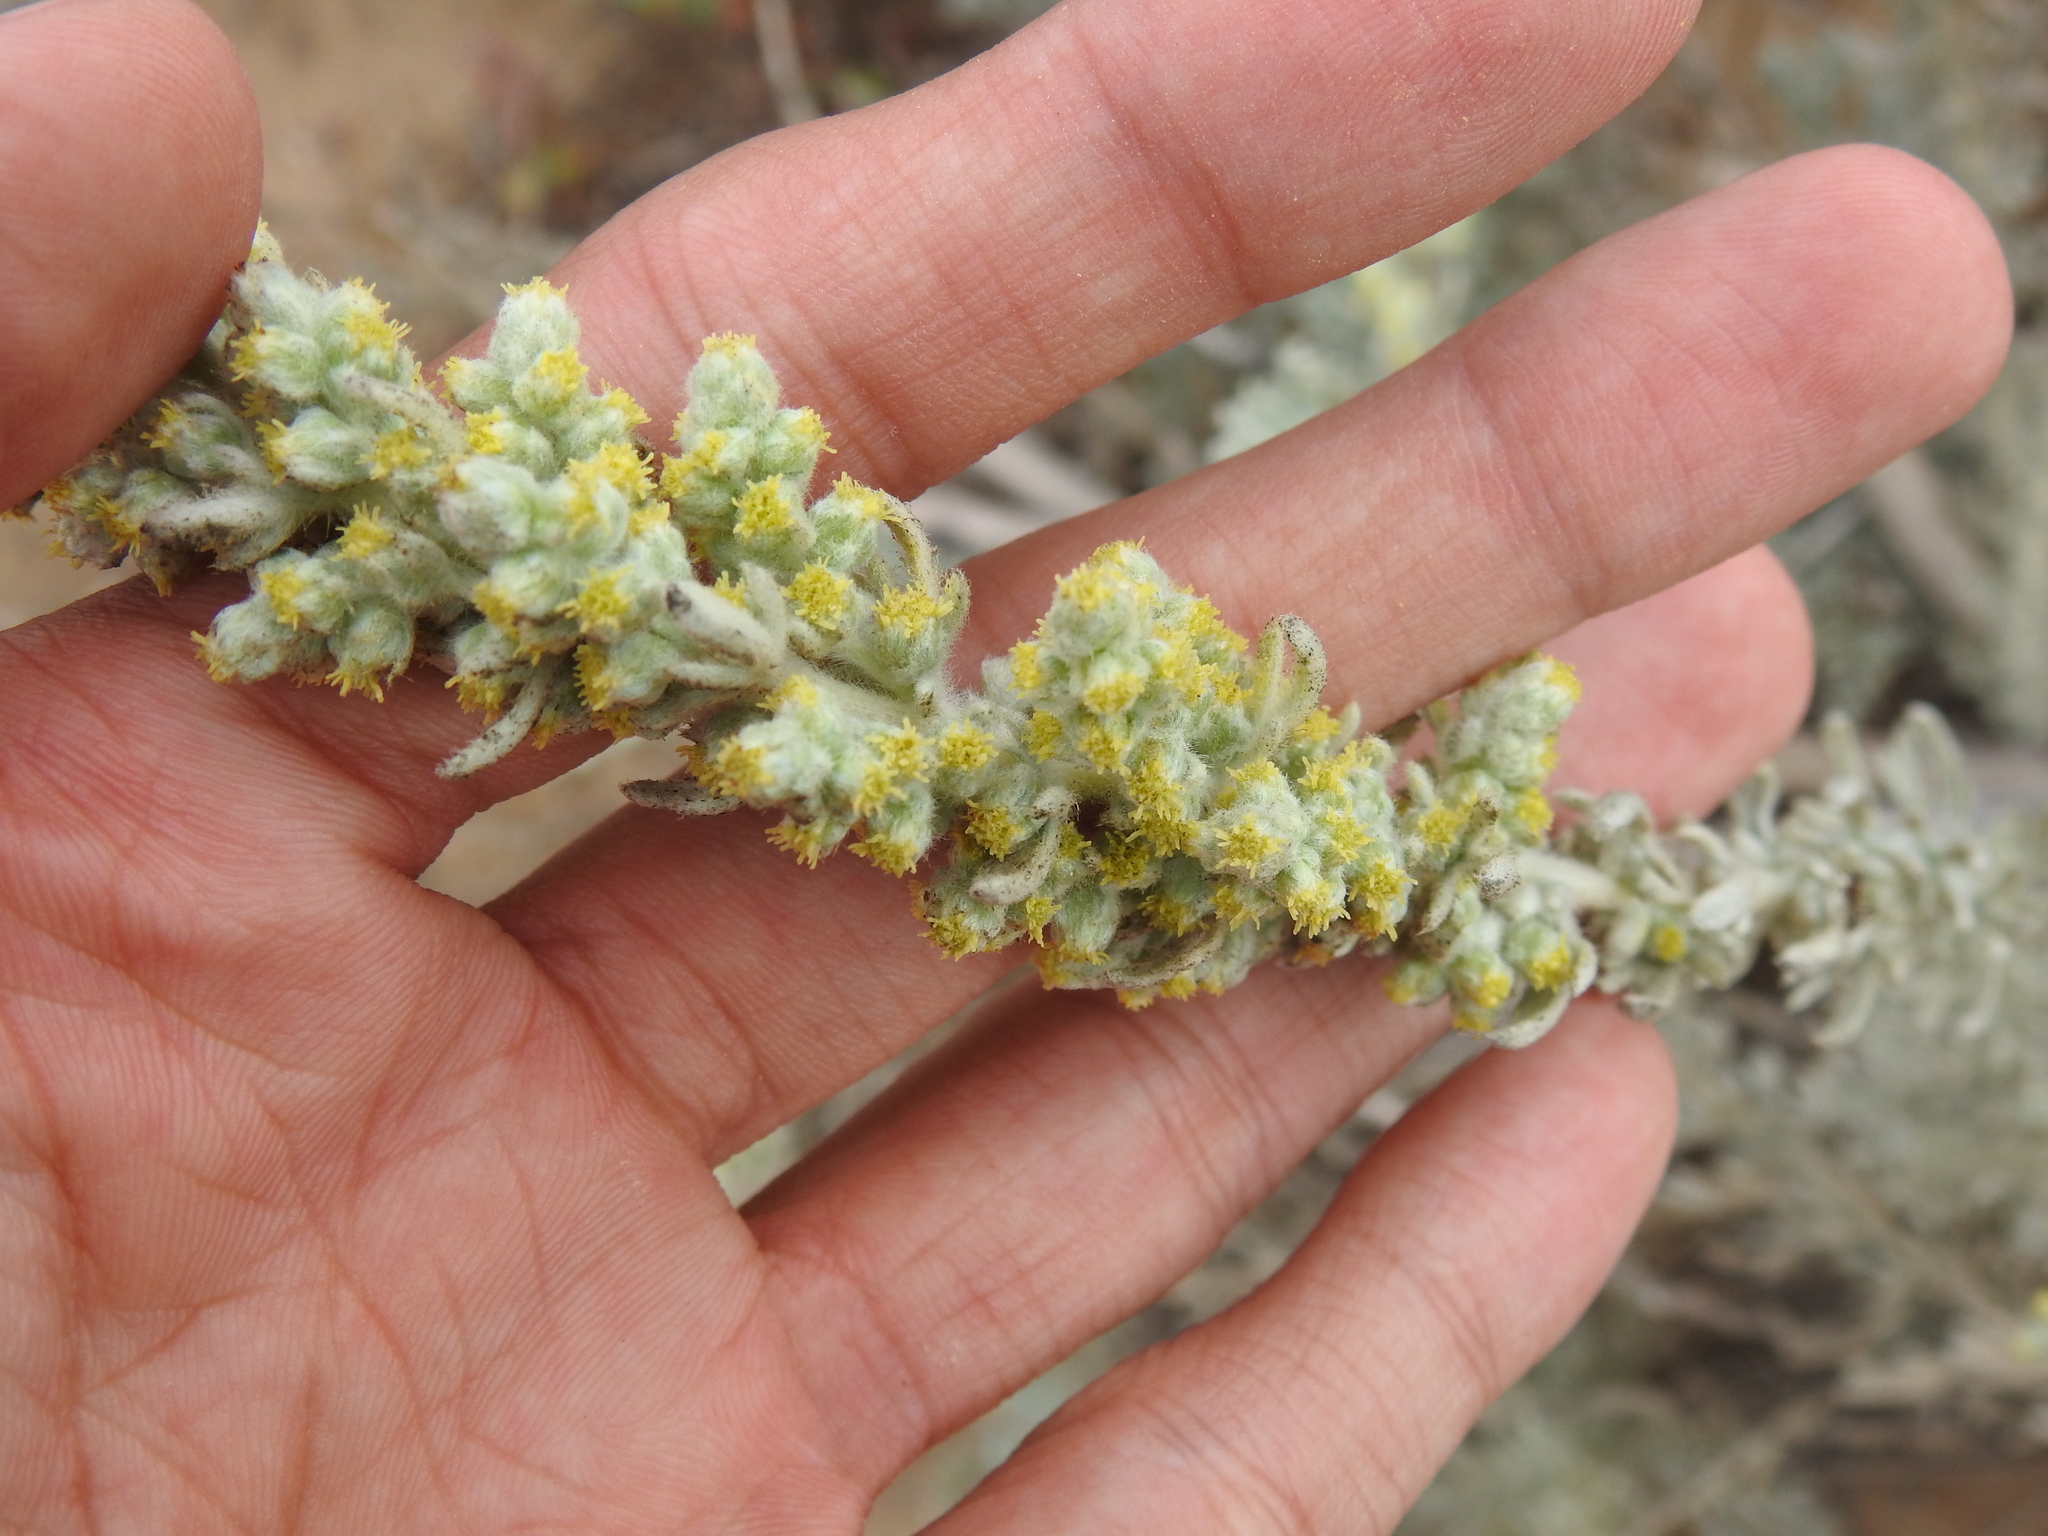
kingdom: Plantae
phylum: Tracheophyta
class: Magnoliopsida
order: Asterales
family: Asteraceae
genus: Artemisia
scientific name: Artemisia pycnocephala
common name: Coastal sagewort
